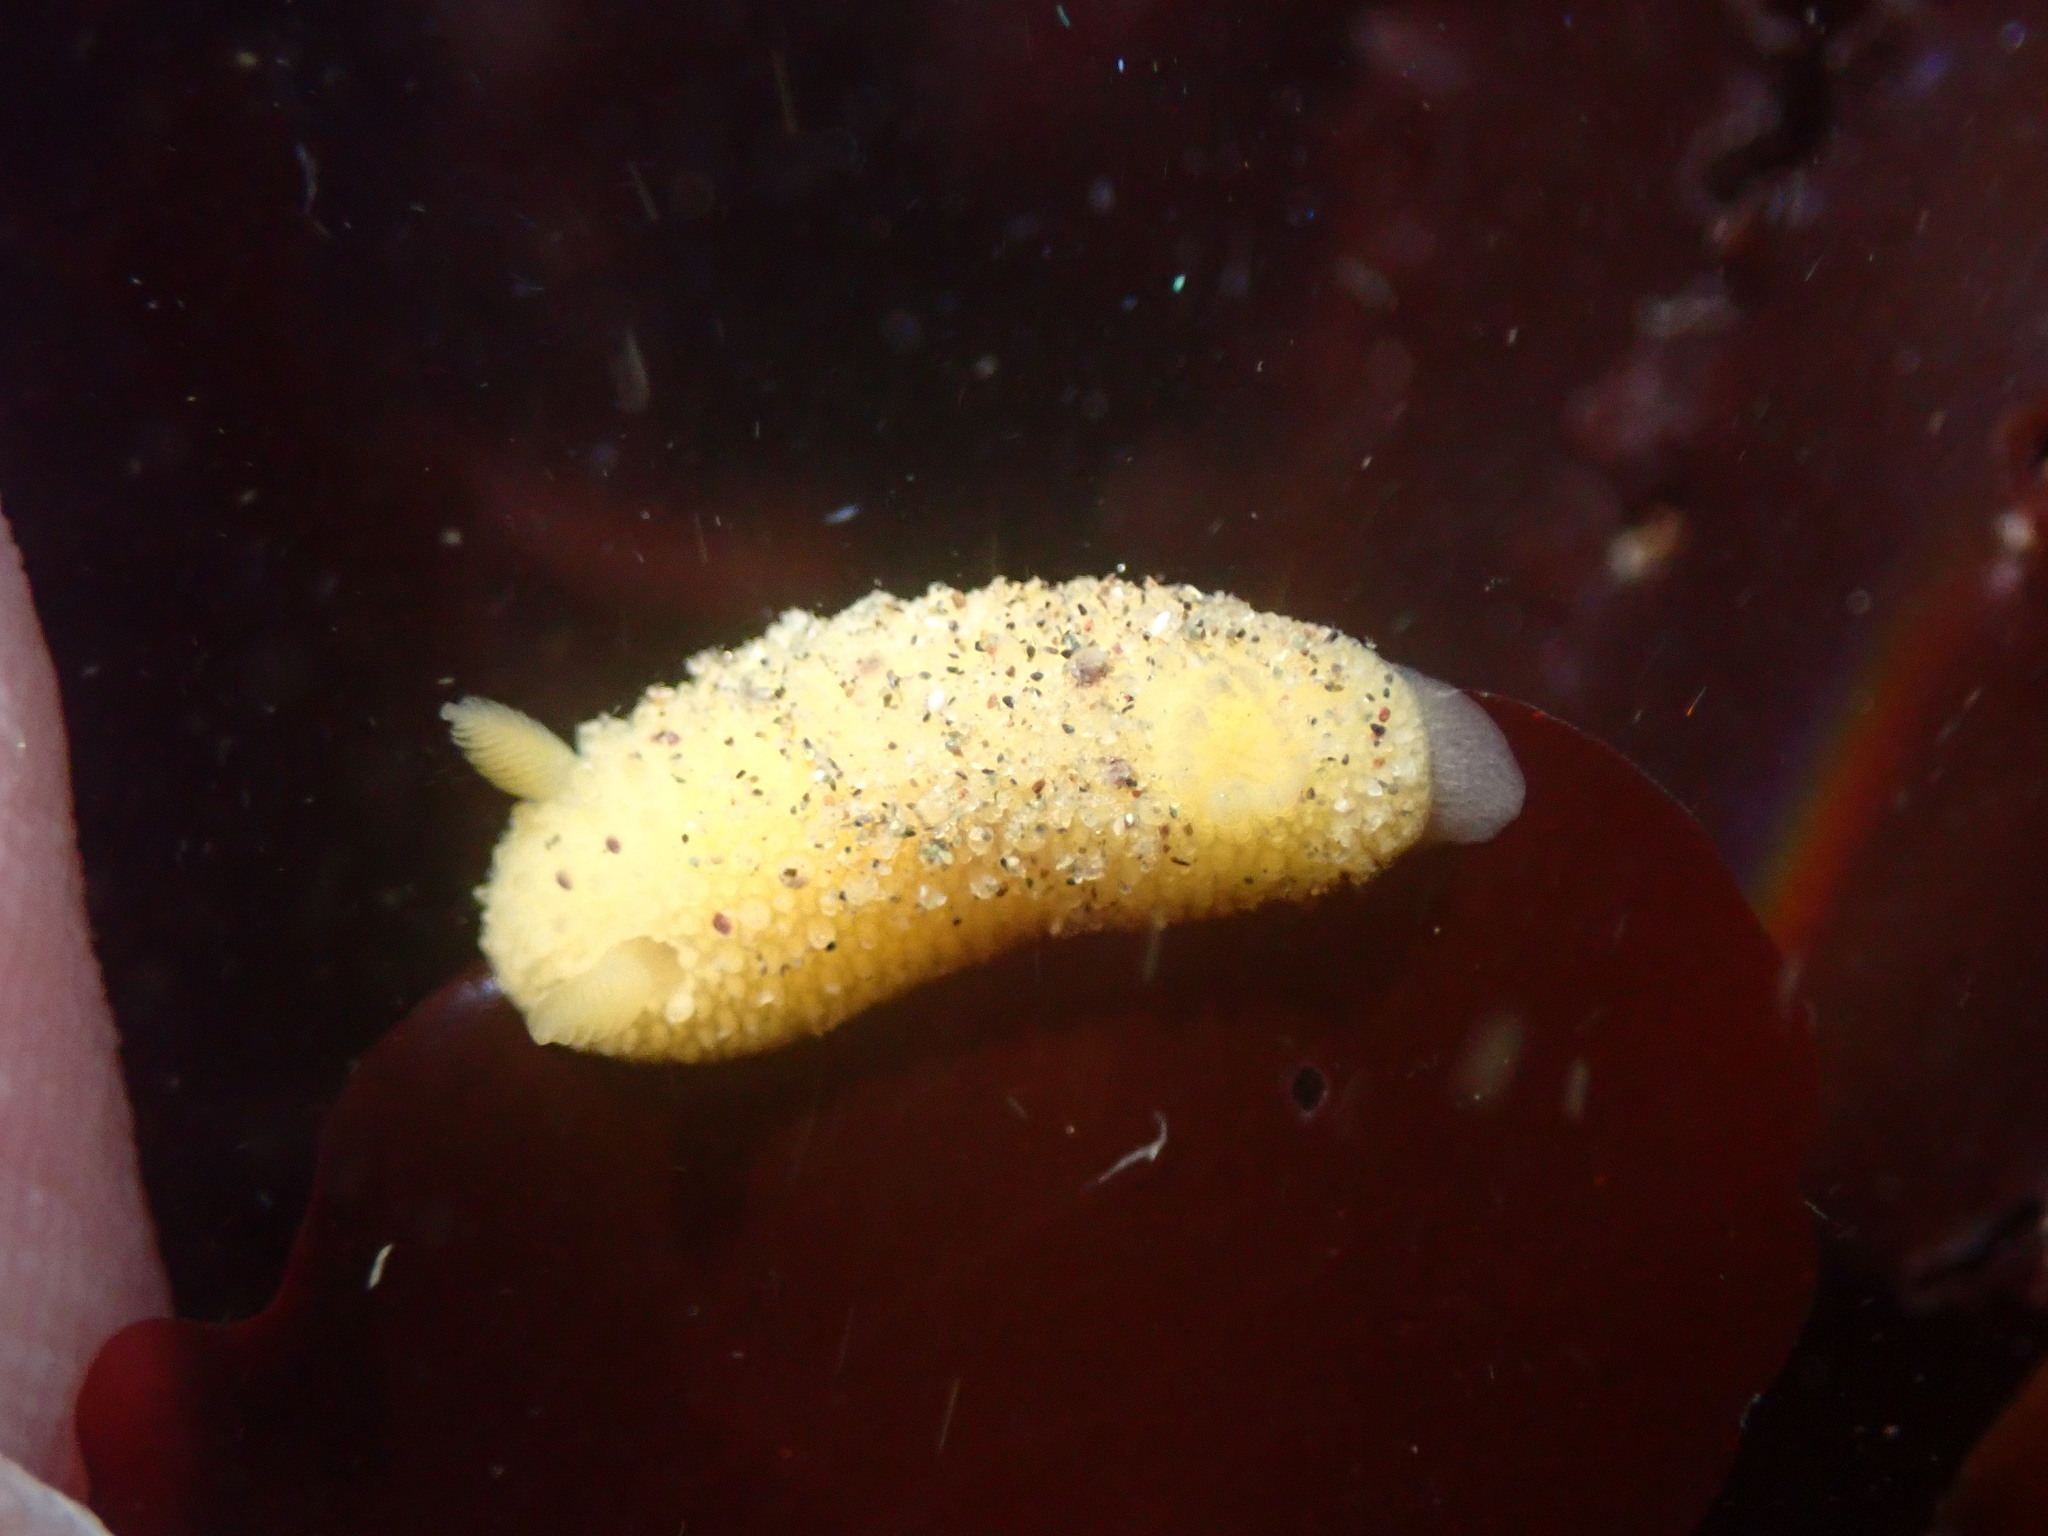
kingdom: Animalia
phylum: Mollusca
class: Gastropoda
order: Nudibranchia
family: Dorididae
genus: Doris
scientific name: Doris montereyensis
